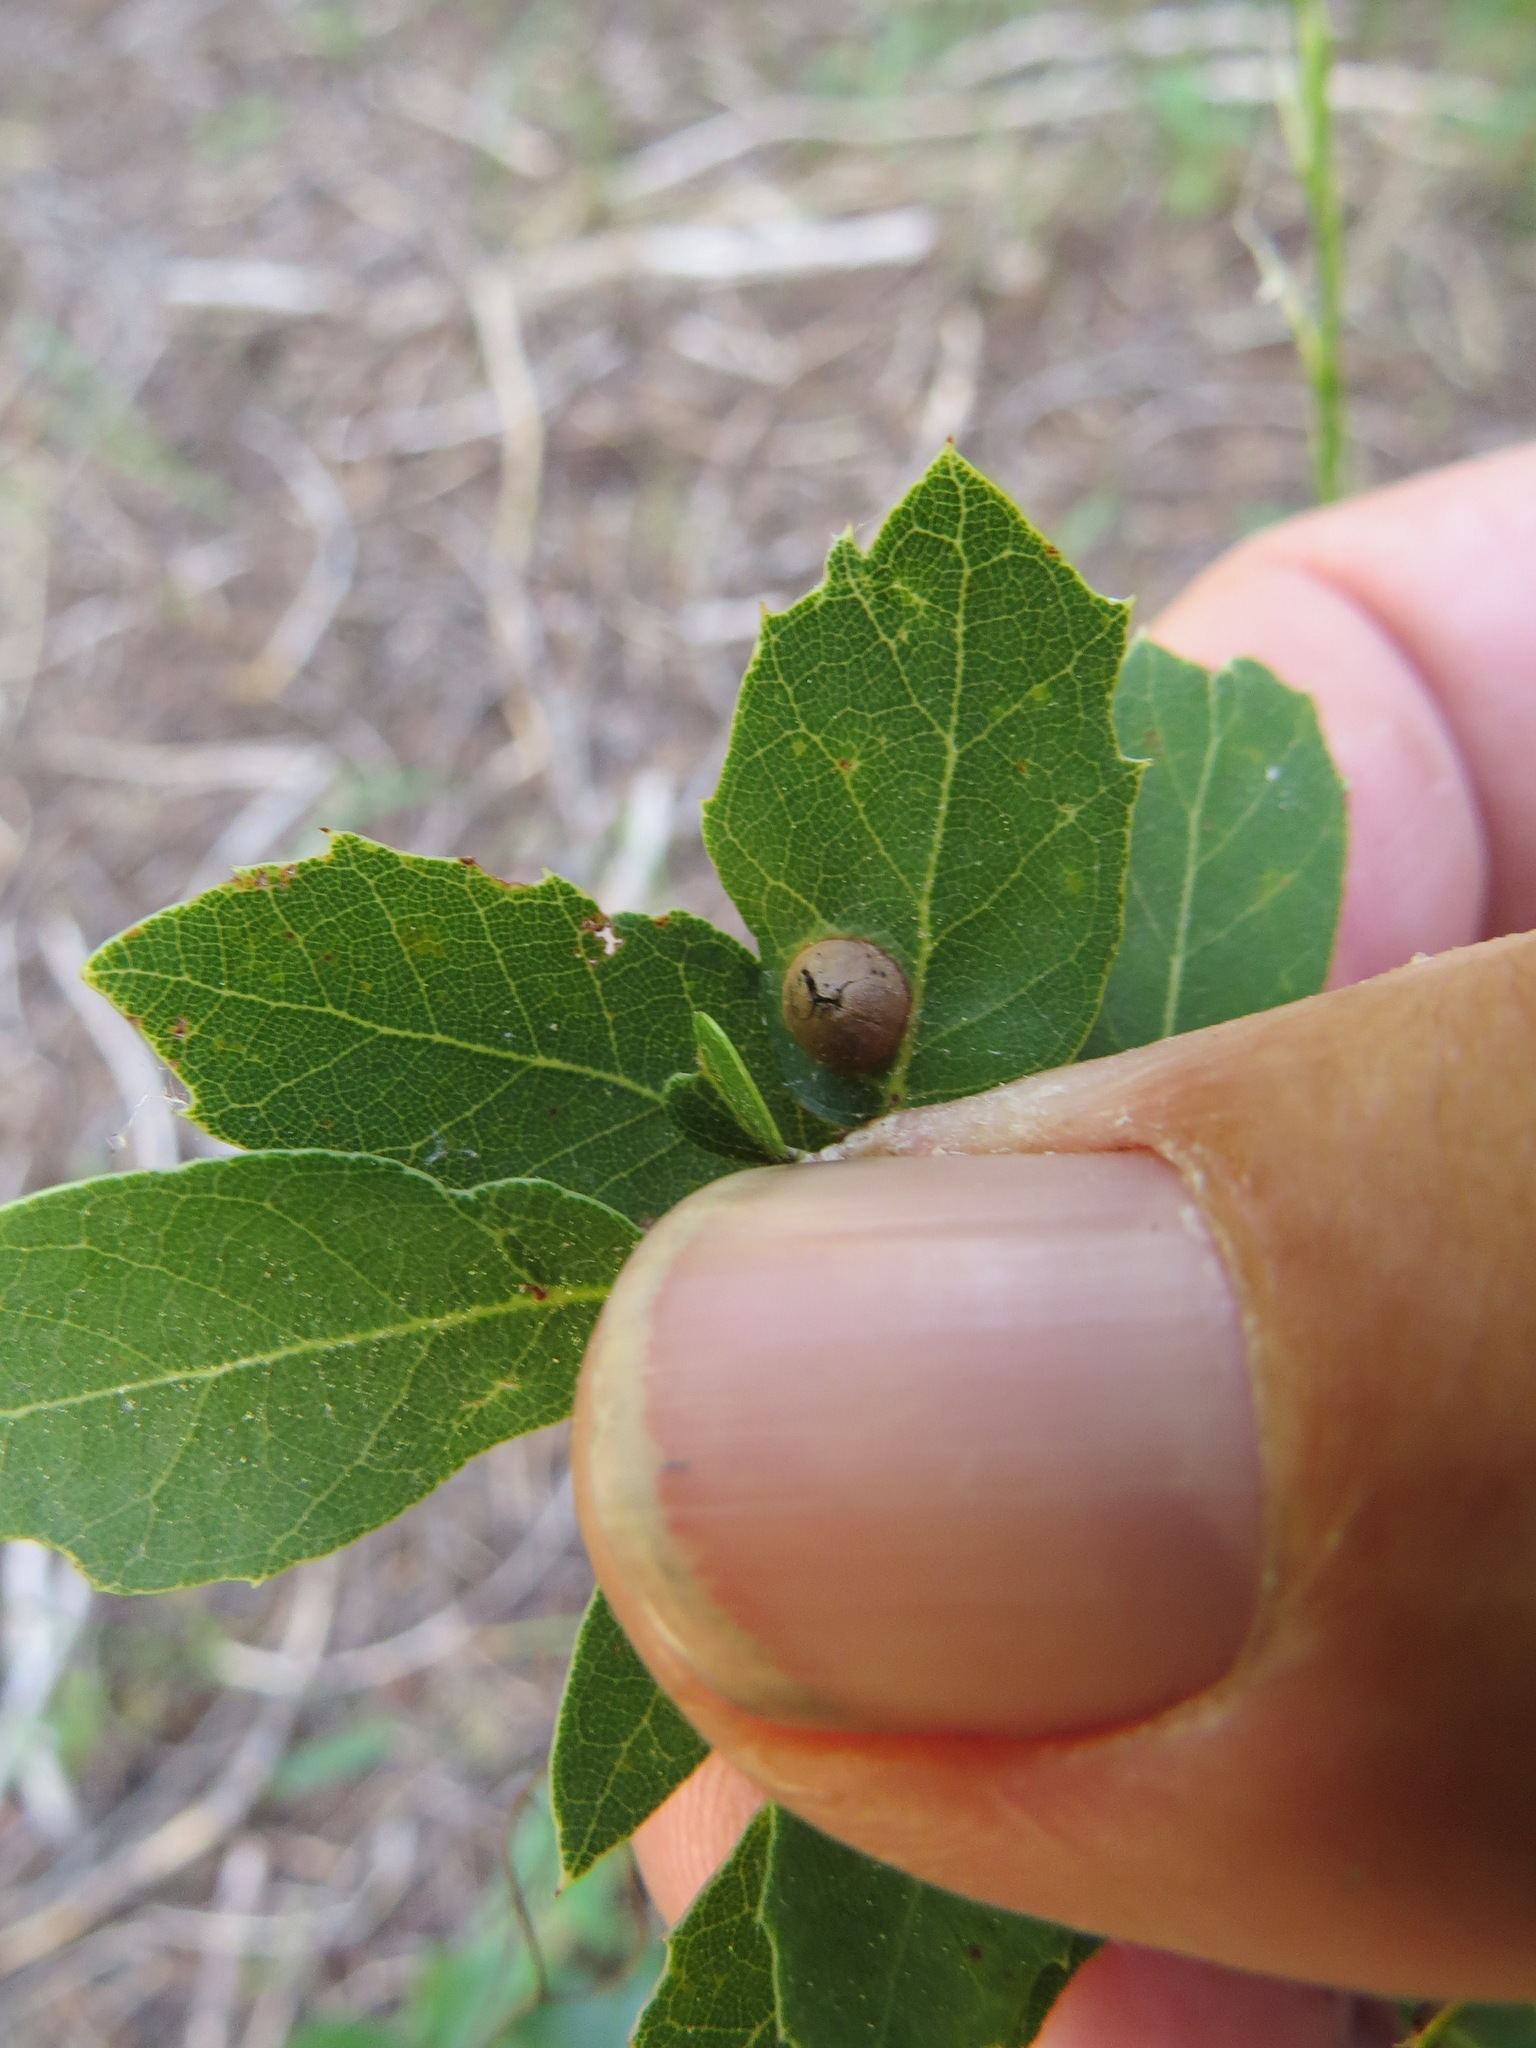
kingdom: Animalia
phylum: Arthropoda
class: Insecta
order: Hymenoptera
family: Cynipidae
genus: Heteroecus
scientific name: Heteroecus
